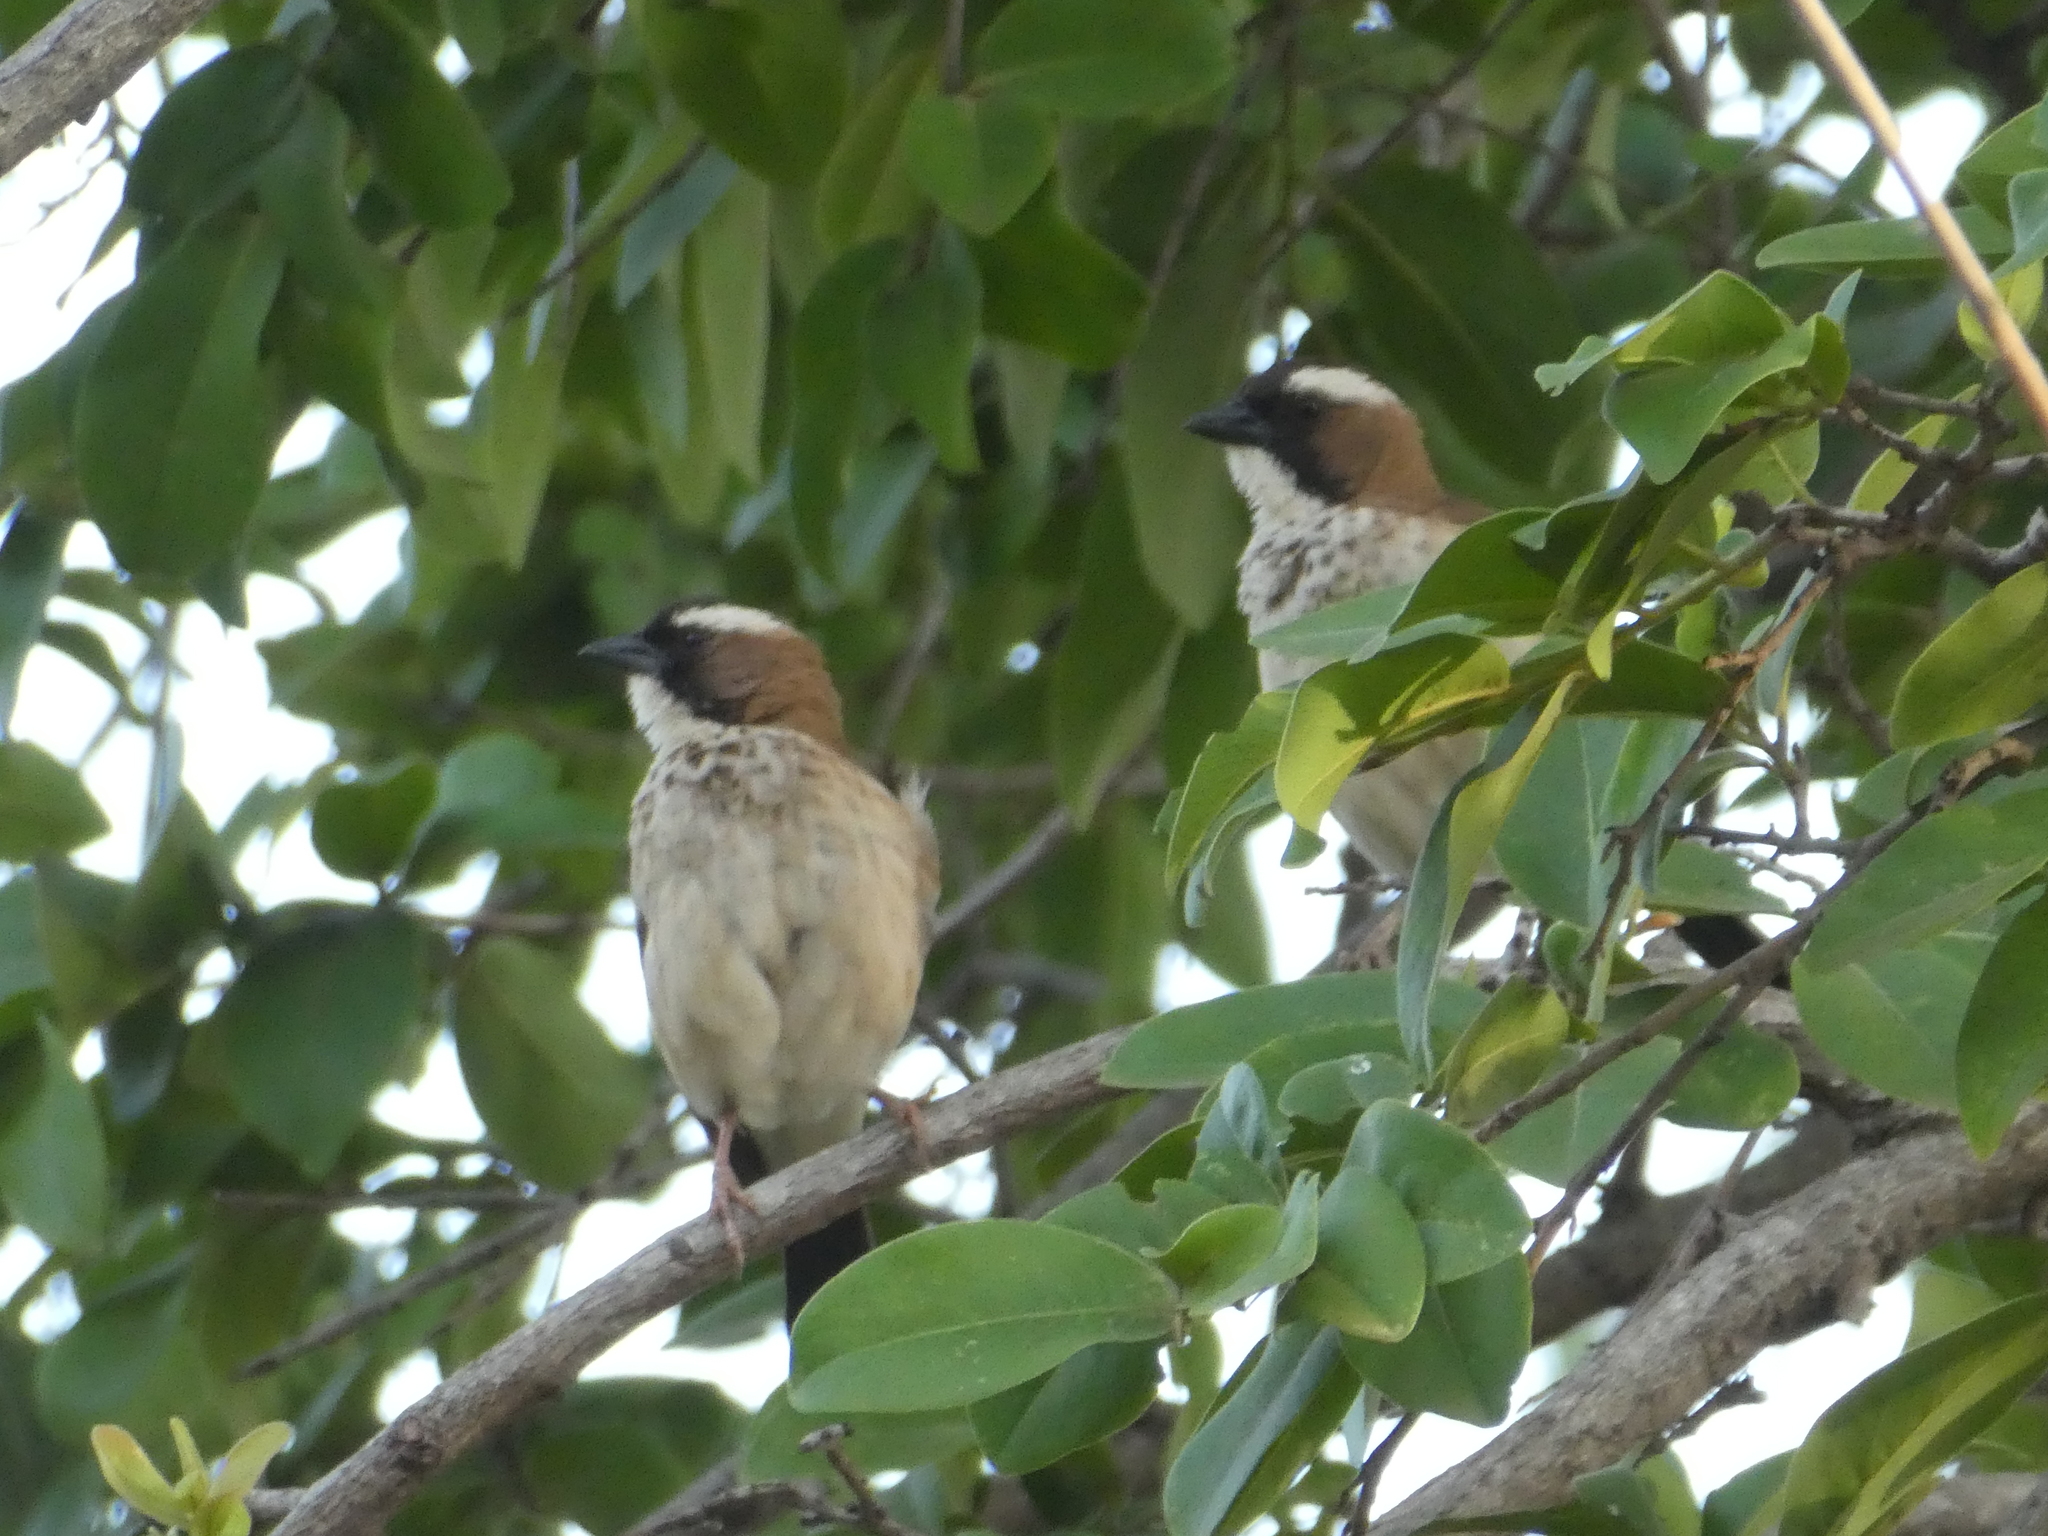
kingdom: Animalia
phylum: Chordata
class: Aves
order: Passeriformes
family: Passeridae
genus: Plocepasser
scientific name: Plocepasser mahali
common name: White-browed sparrow-weaver
